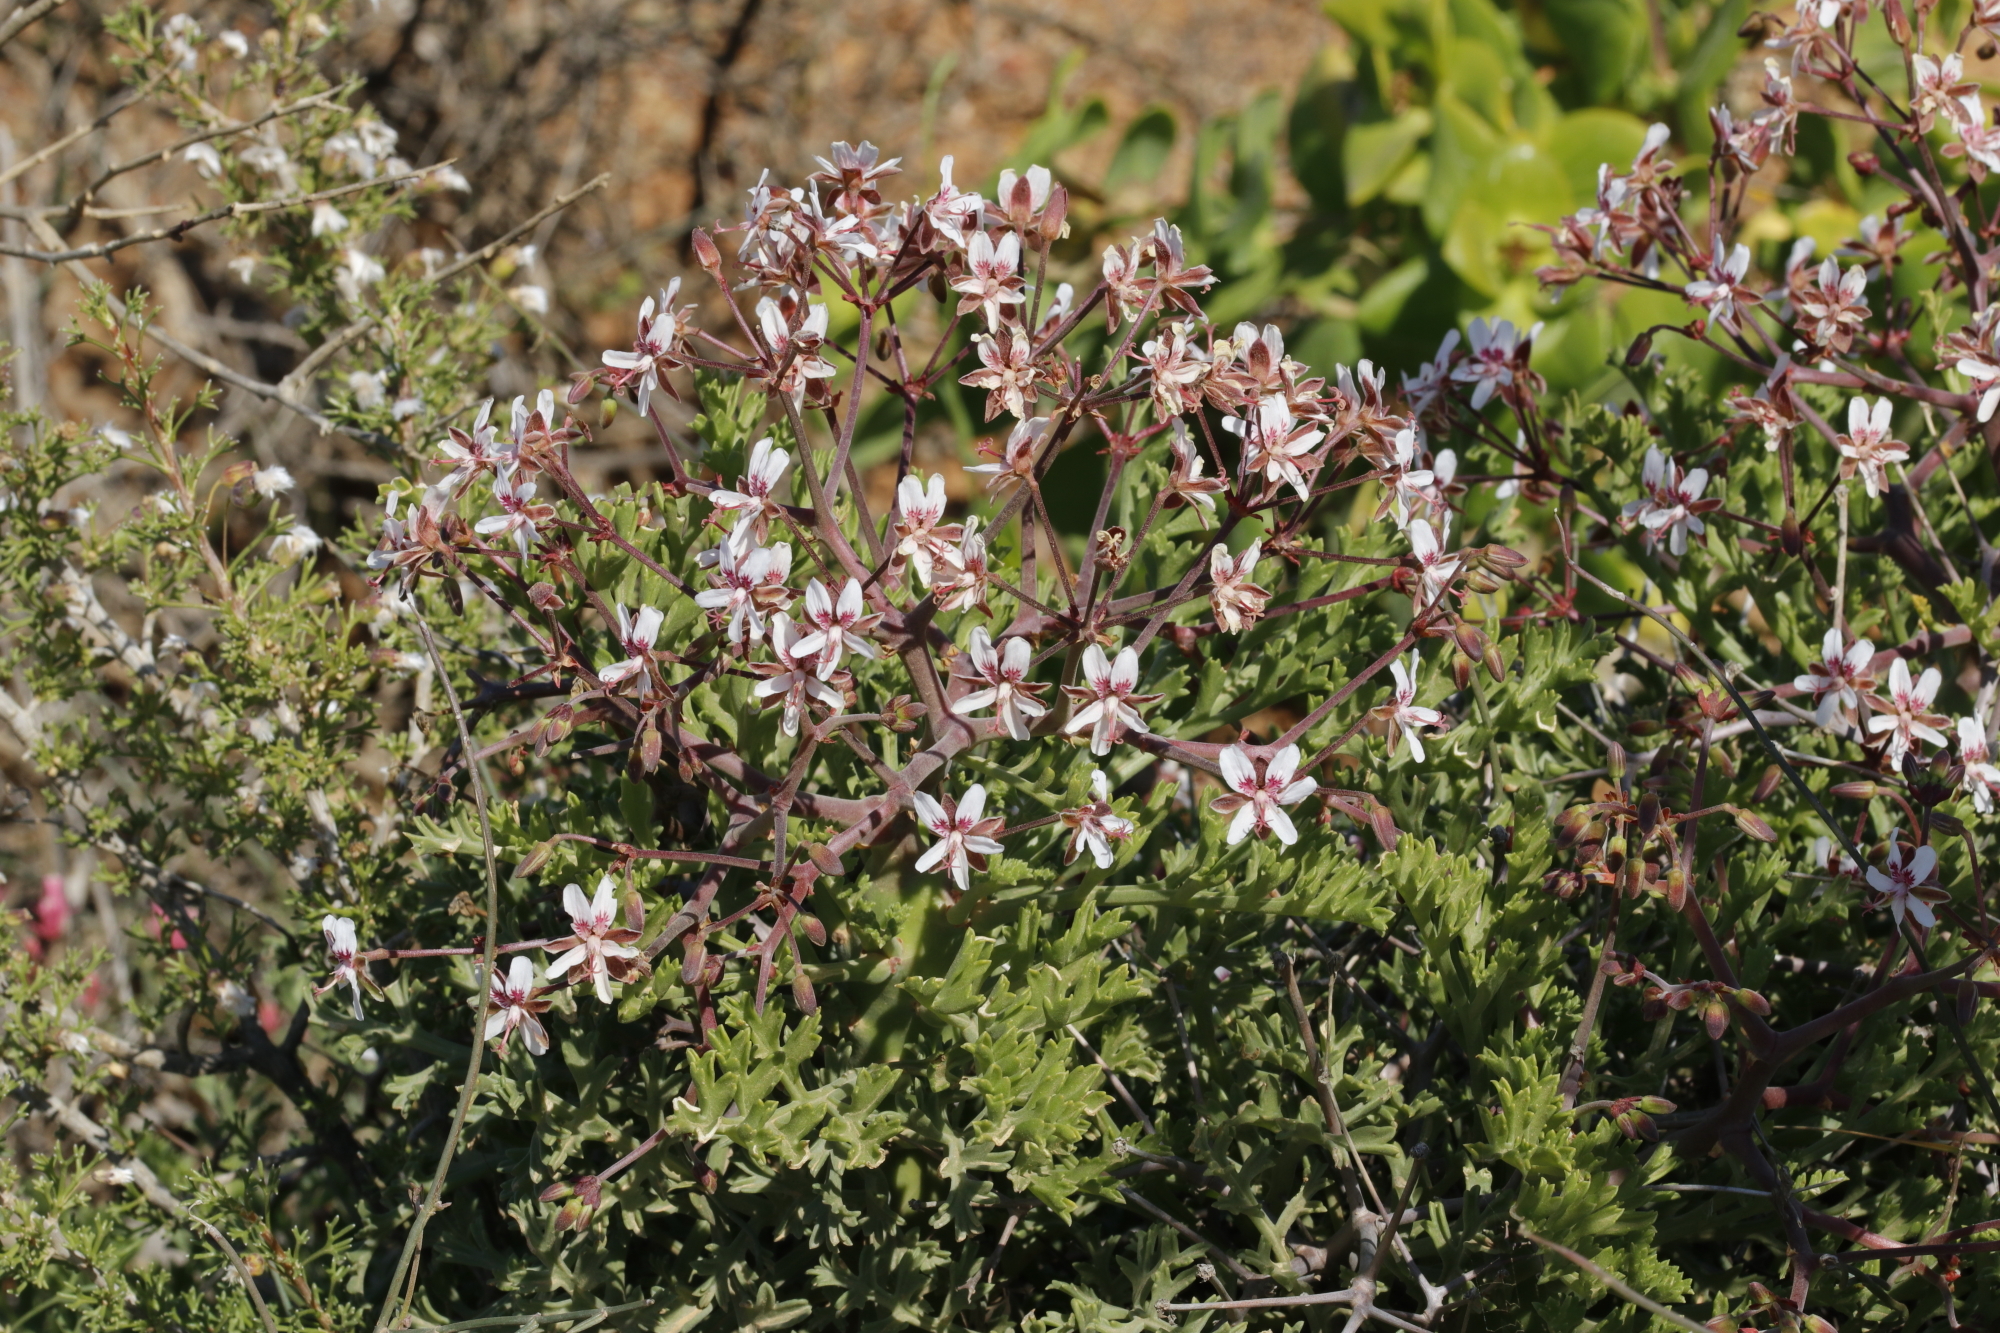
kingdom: Plantae
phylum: Tracheophyta
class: Magnoliopsida
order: Geraniales
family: Geraniaceae
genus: Pelargonium
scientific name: Pelargonium crithmifolium
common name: Samphire-leaf pelargonium
